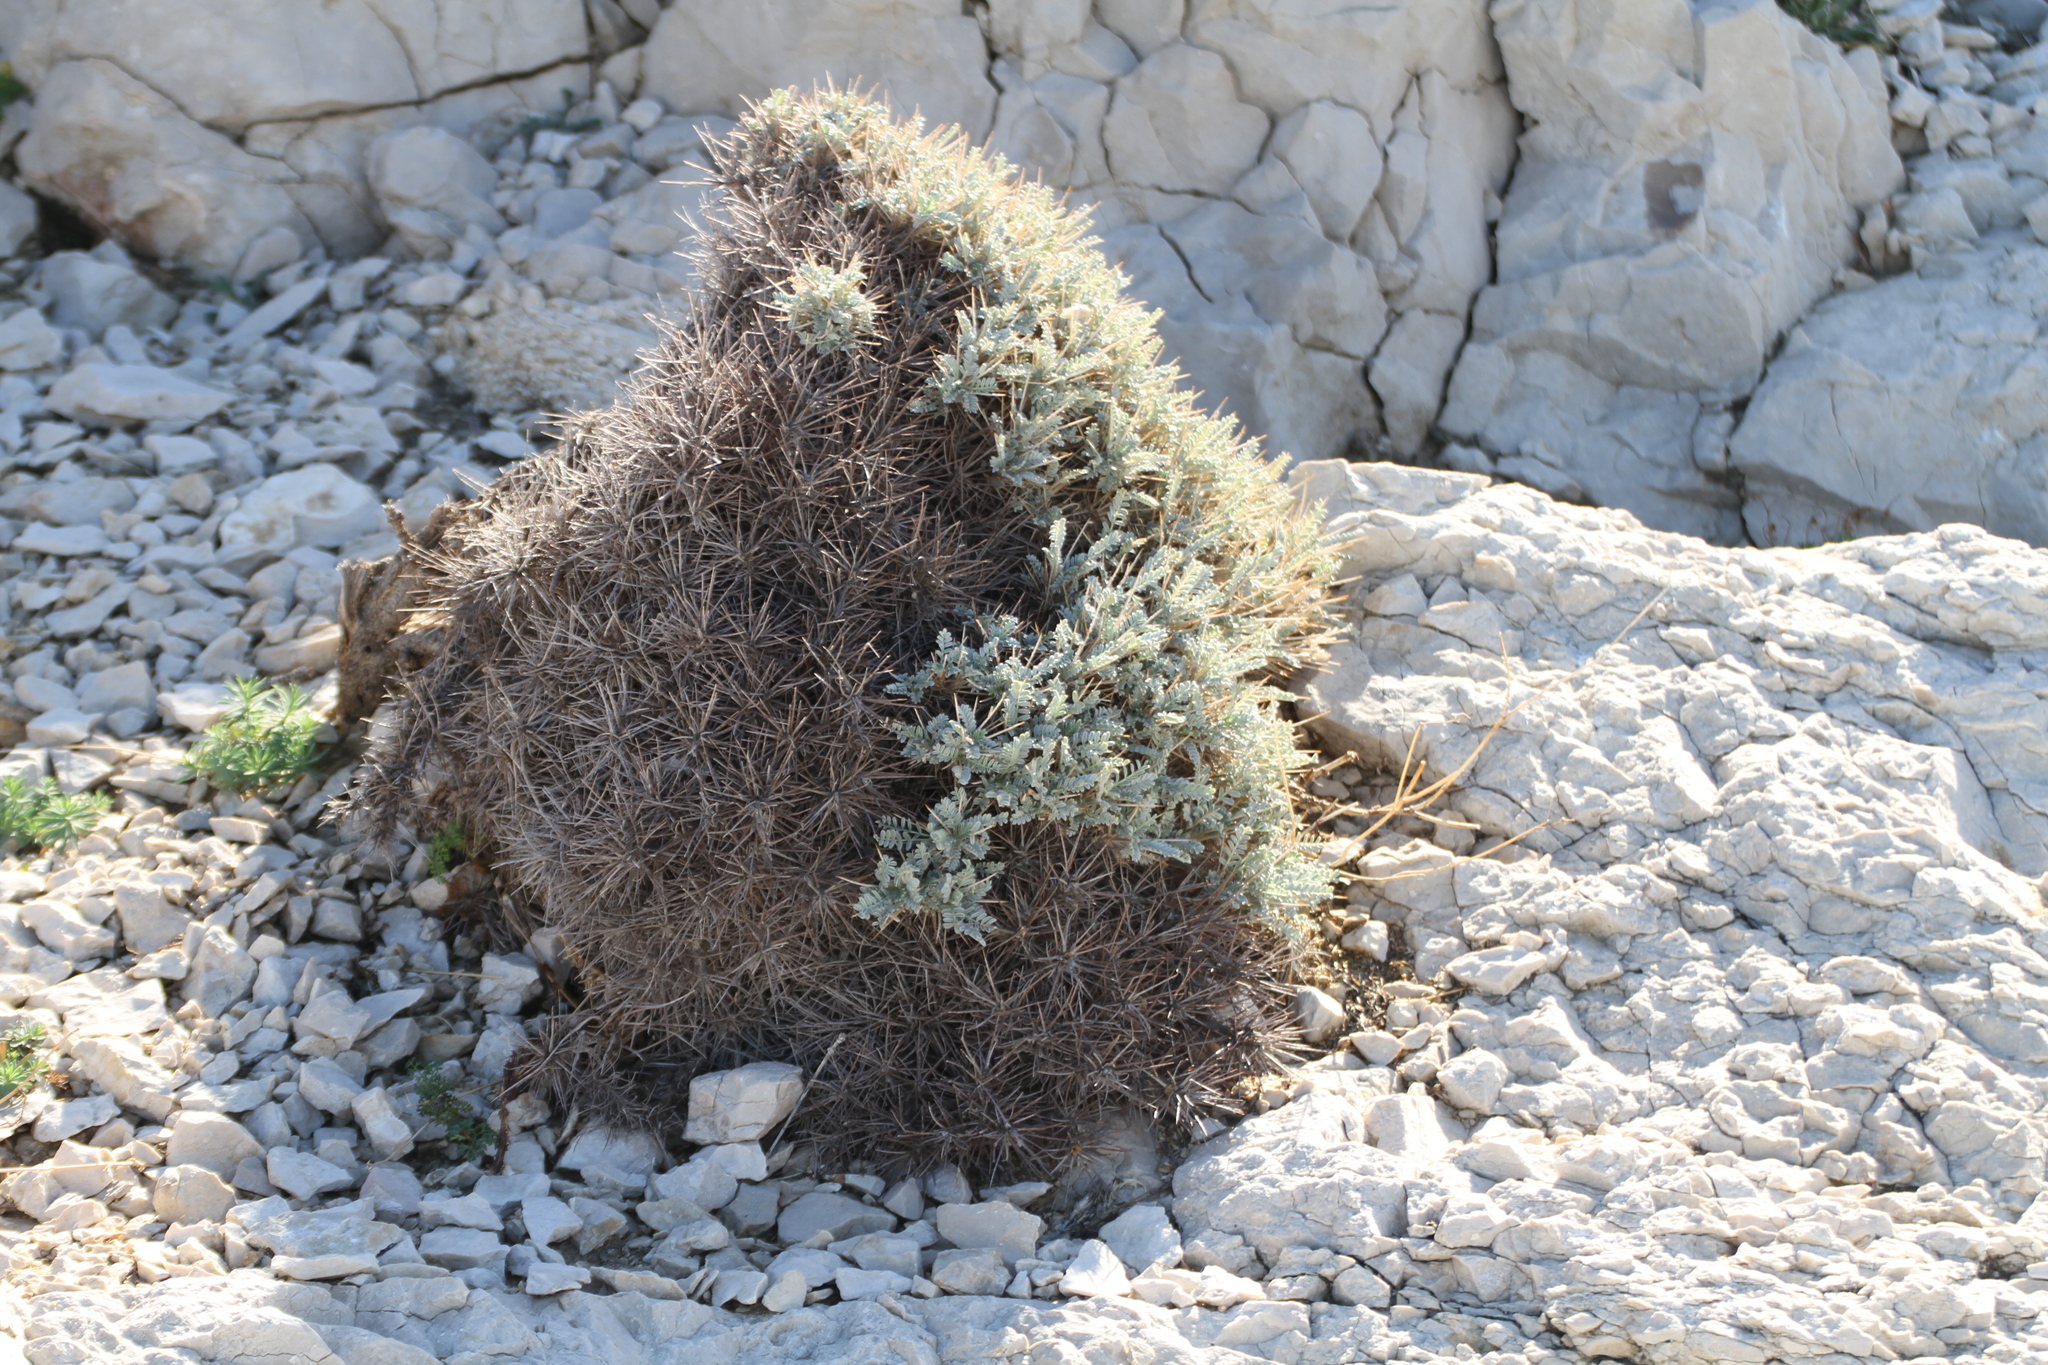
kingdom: Plantae
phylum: Tracheophyta
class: Magnoliopsida
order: Fabales
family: Fabaceae
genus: Astragalus
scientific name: Astragalus tragacantha
